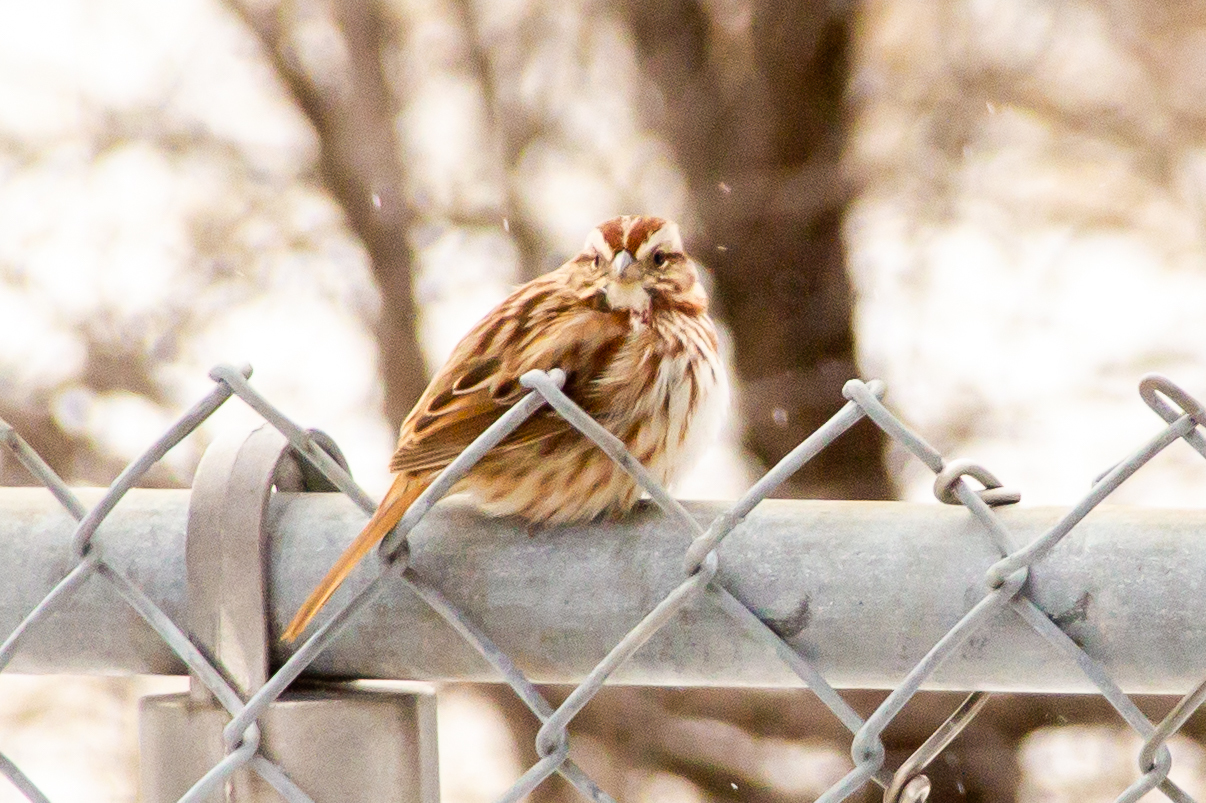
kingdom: Animalia
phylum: Chordata
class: Aves
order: Passeriformes
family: Passerellidae
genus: Melospiza
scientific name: Melospiza melodia
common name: Song sparrow
